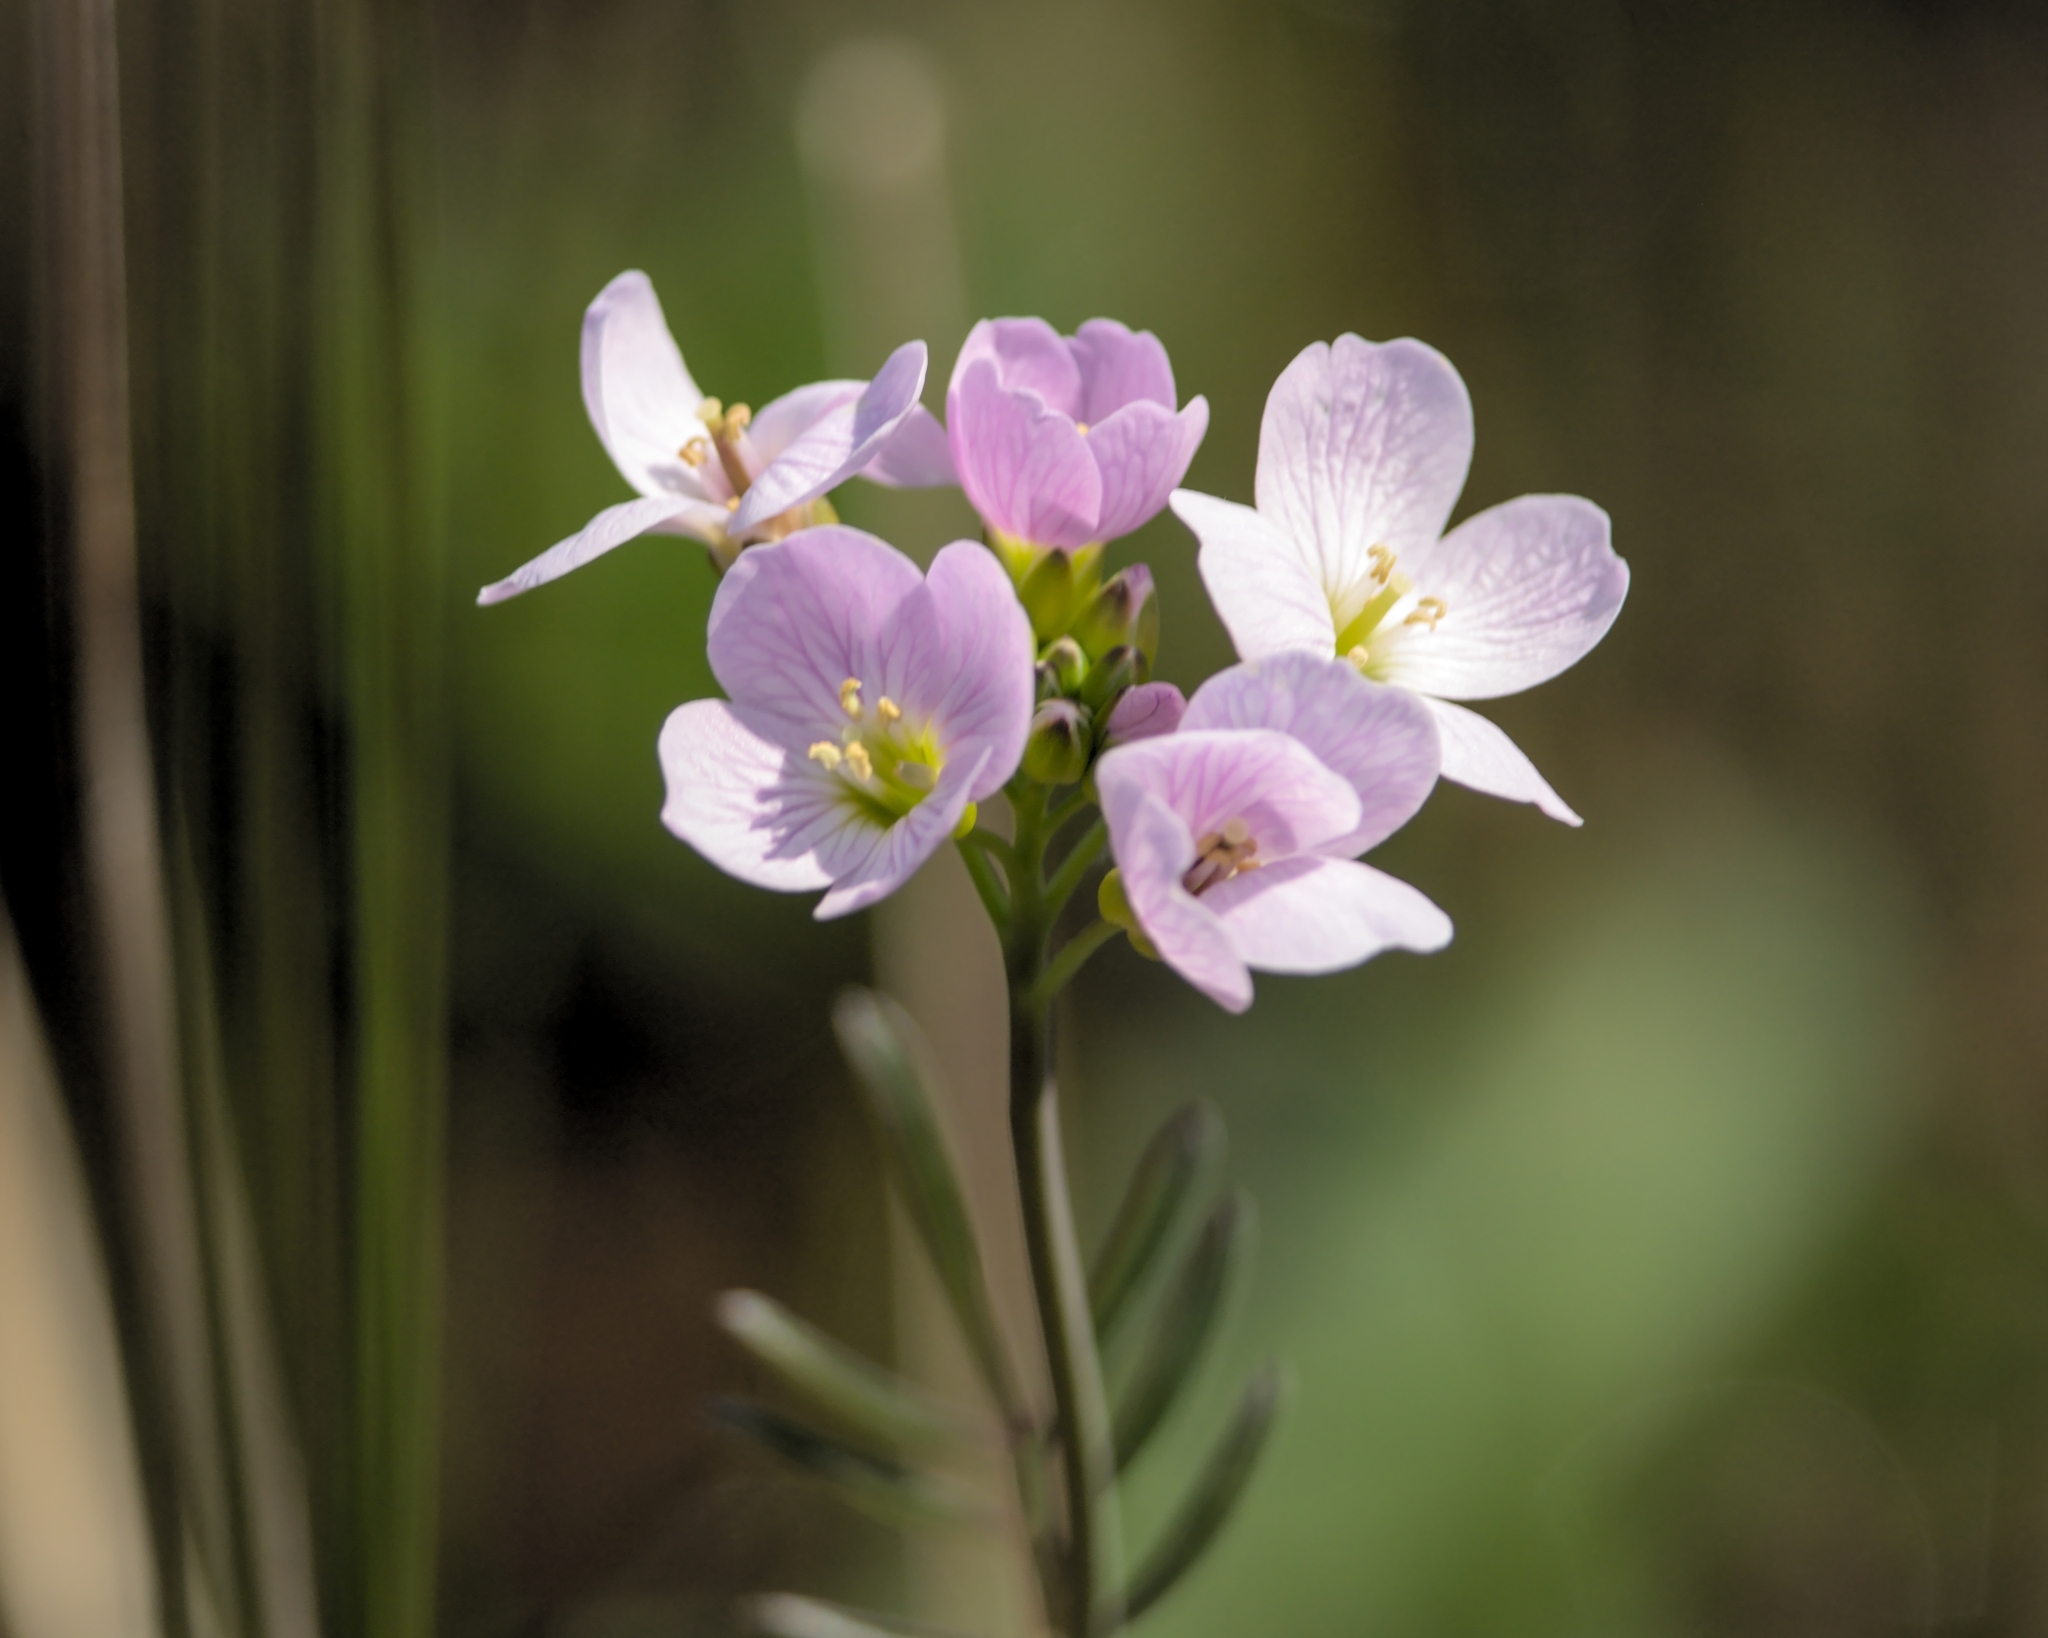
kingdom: Plantae
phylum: Tracheophyta
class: Magnoliopsida
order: Brassicales
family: Brassicaceae
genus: Cardamine
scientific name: Cardamine pratensis
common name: Cuckoo flower
